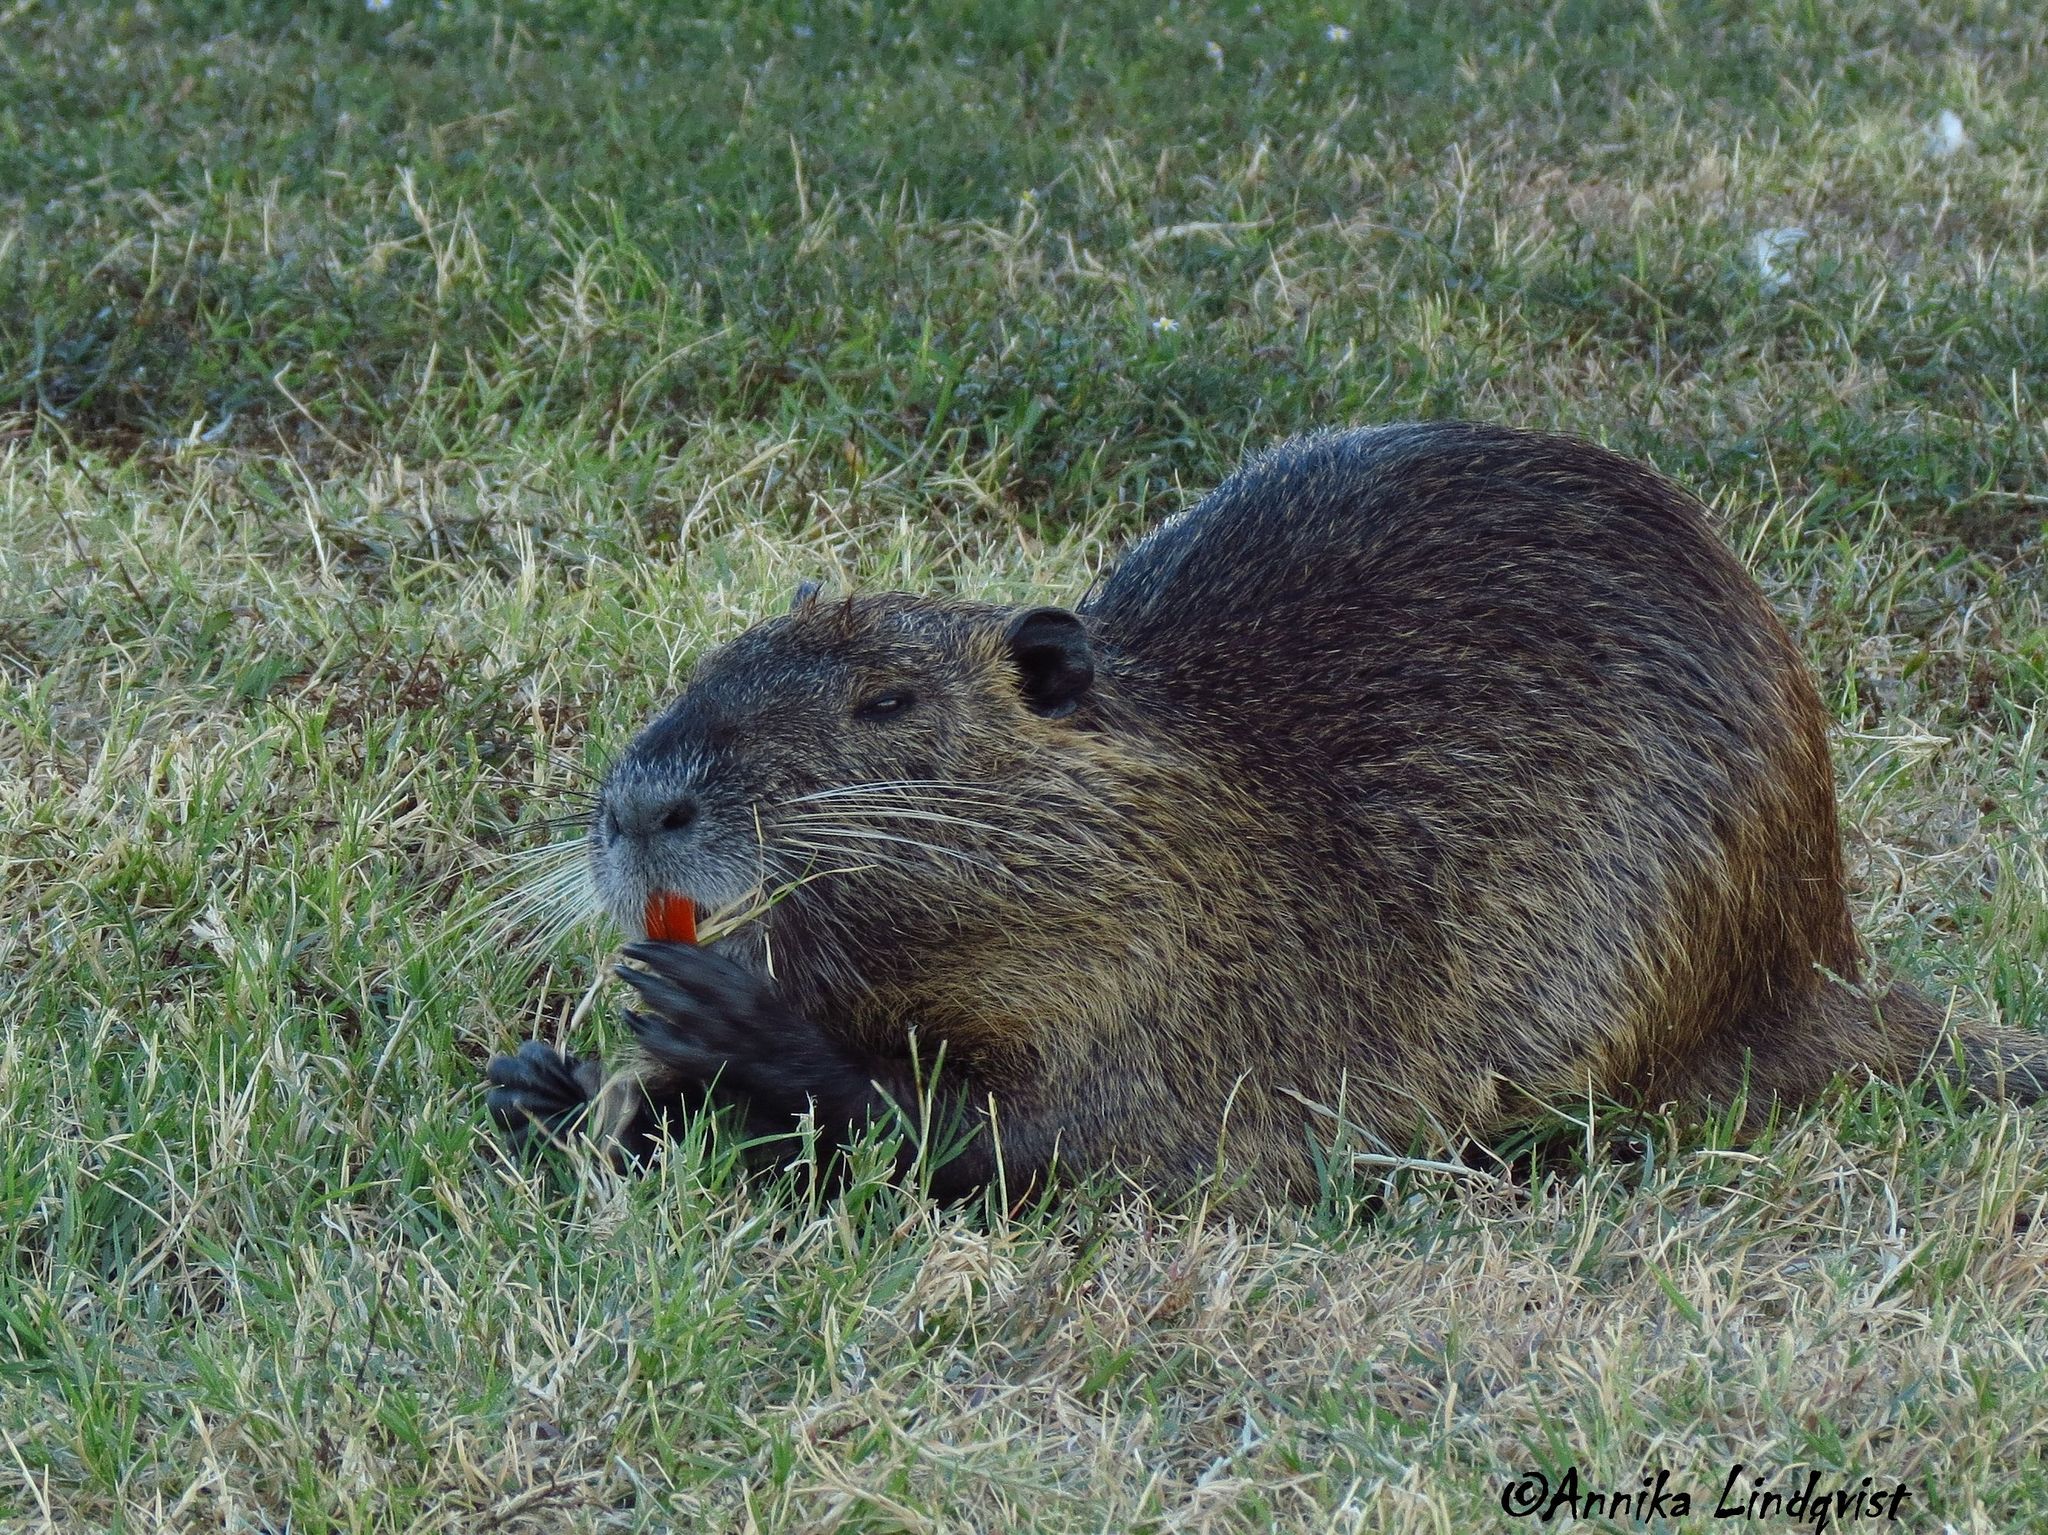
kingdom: Animalia
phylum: Chordata
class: Mammalia
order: Rodentia
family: Myocastoridae
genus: Myocastor
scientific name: Myocastor coypus
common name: Coypu
